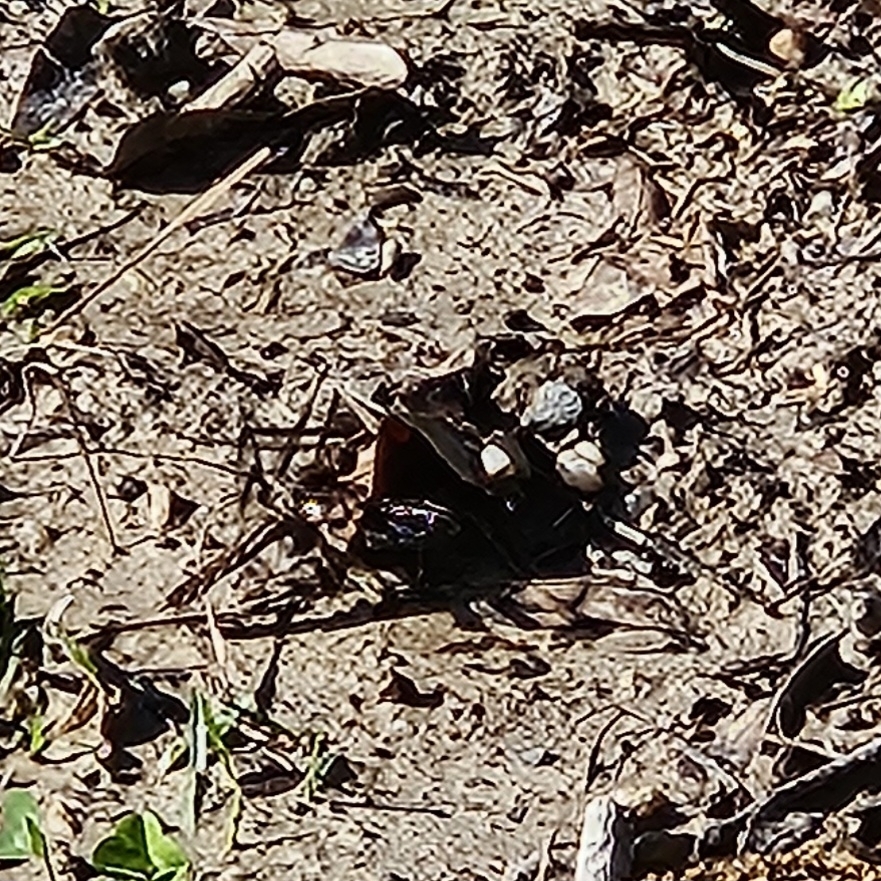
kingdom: Animalia
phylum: Arthropoda
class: Insecta
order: Odonata
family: Libellulidae
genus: Plathemis
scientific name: Plathemis lydia
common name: Common whitetail
